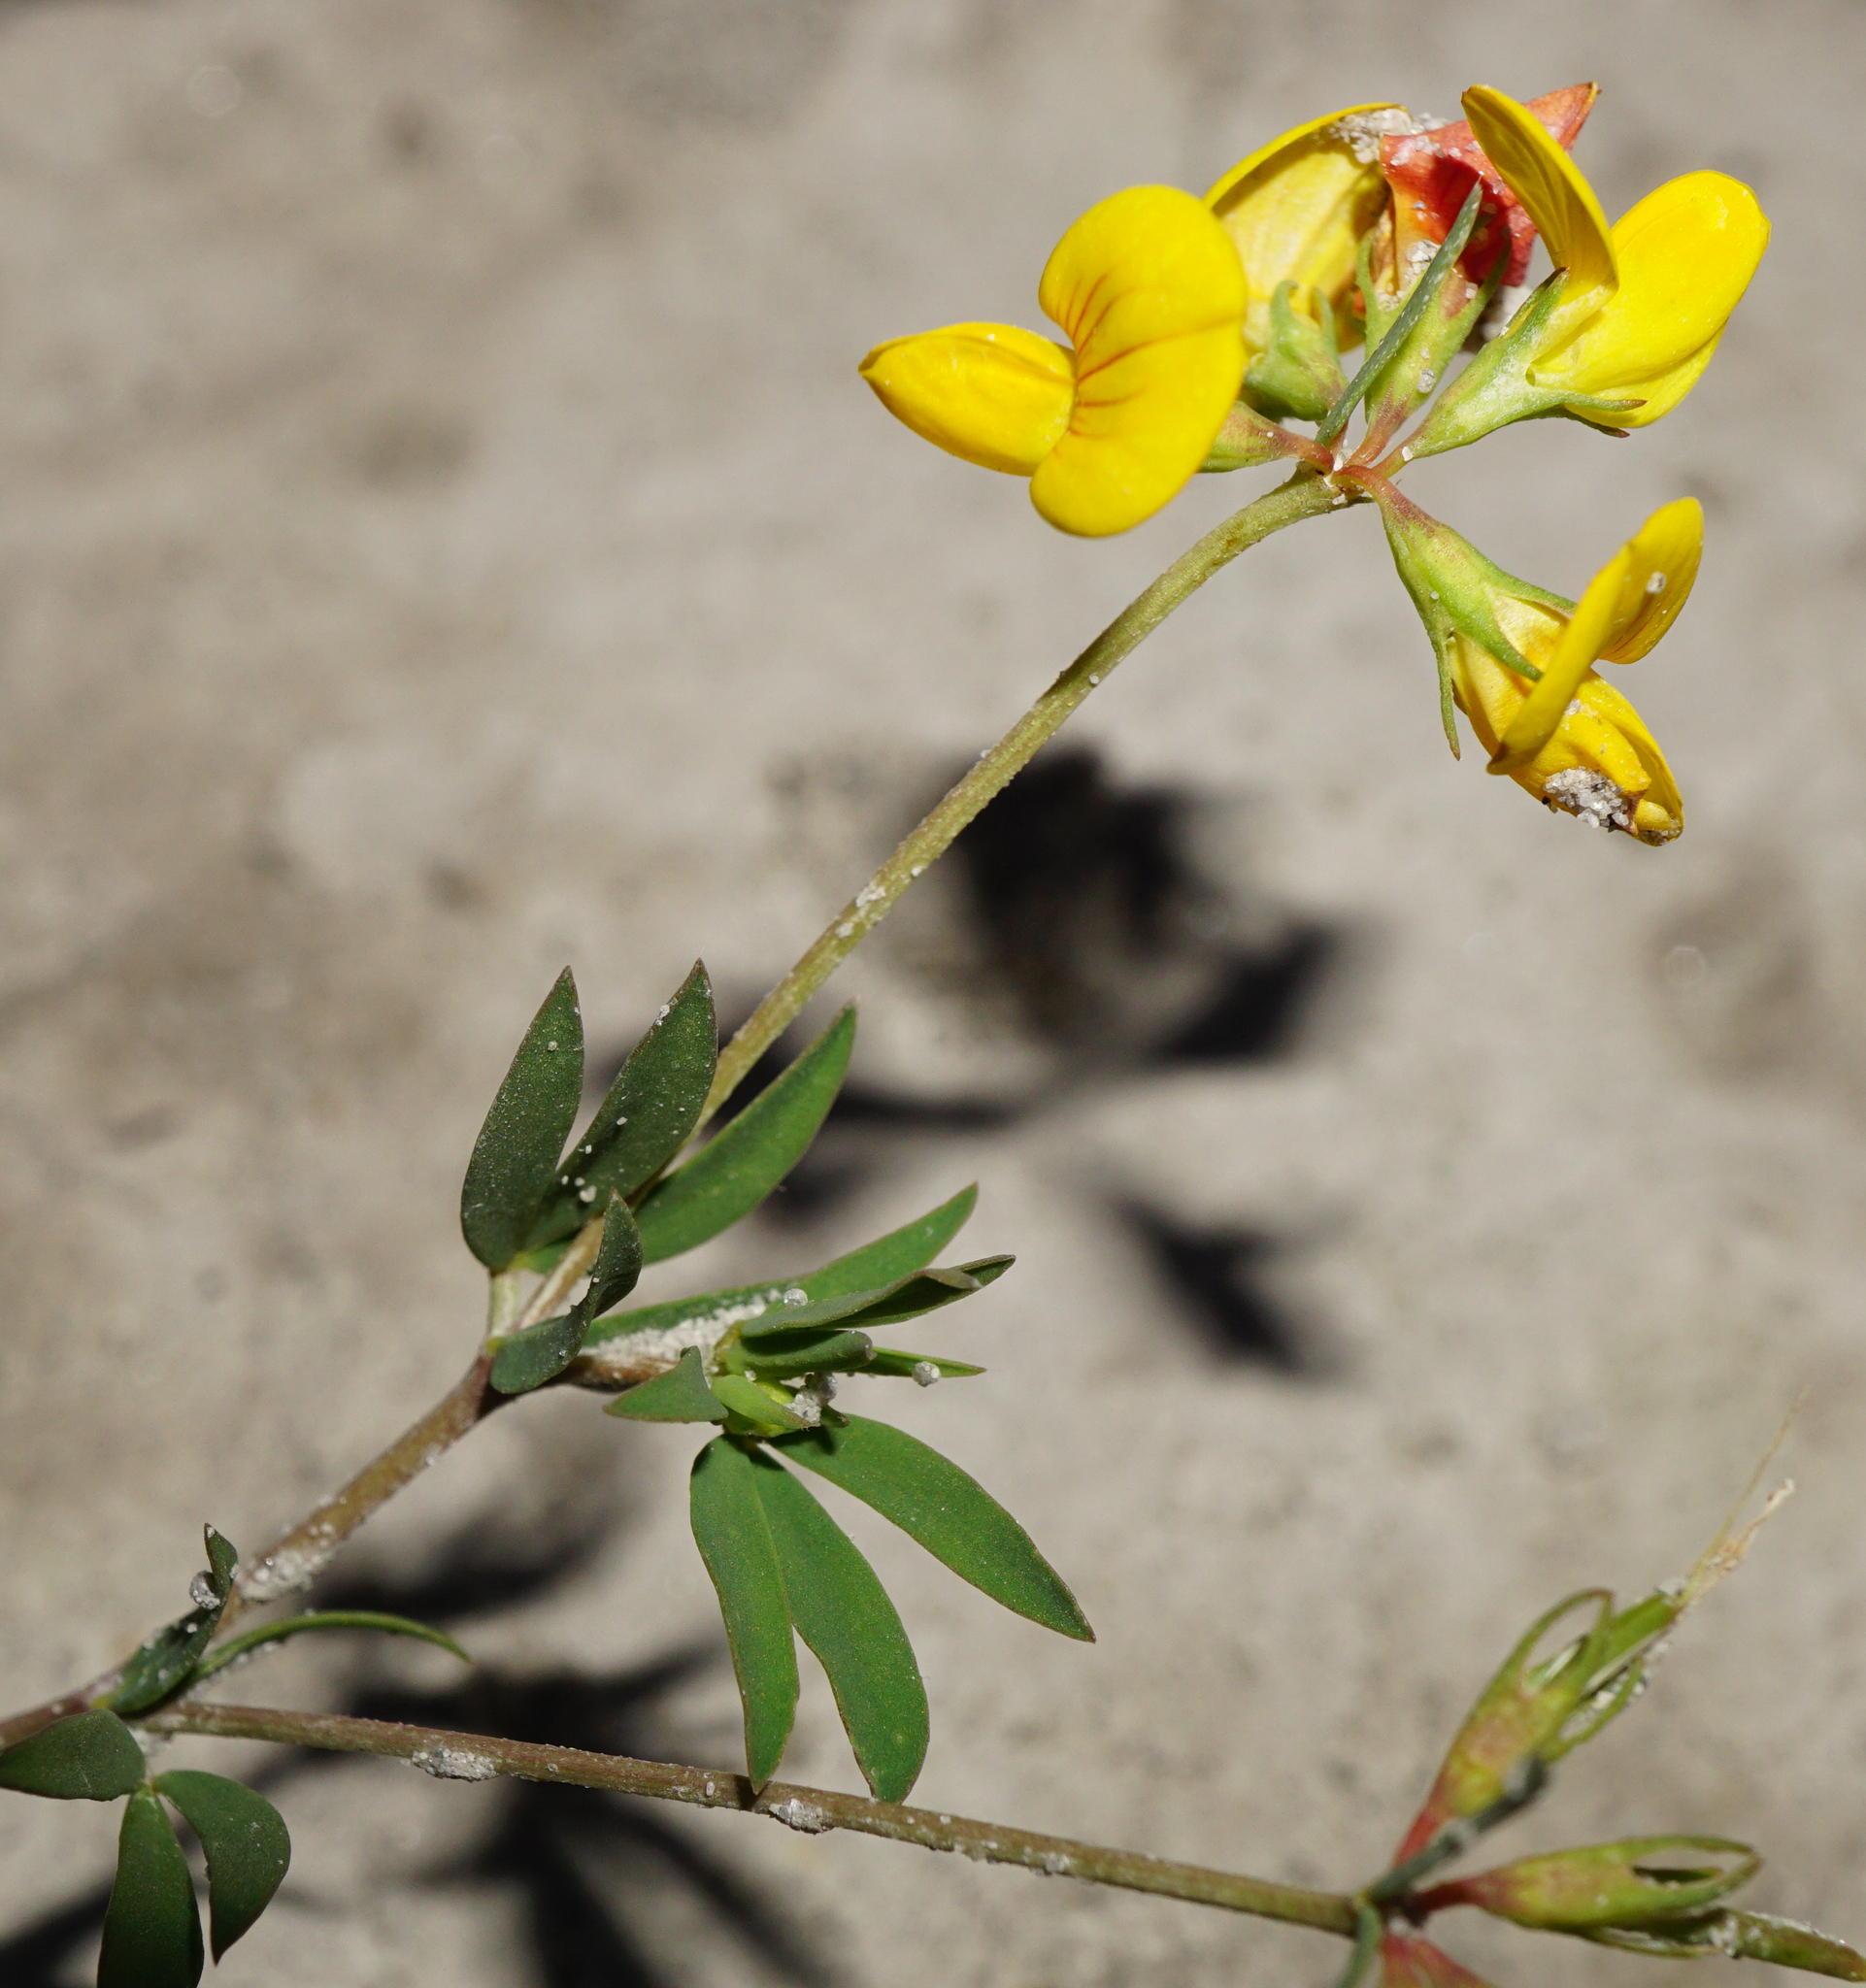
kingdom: Plantae
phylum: Tracheophyta
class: Magnoliopsida
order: Fabales
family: Fabaceae
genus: Lotus
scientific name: Lotus tenuis
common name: Narrow-leaved bird's-foot-trefoil
